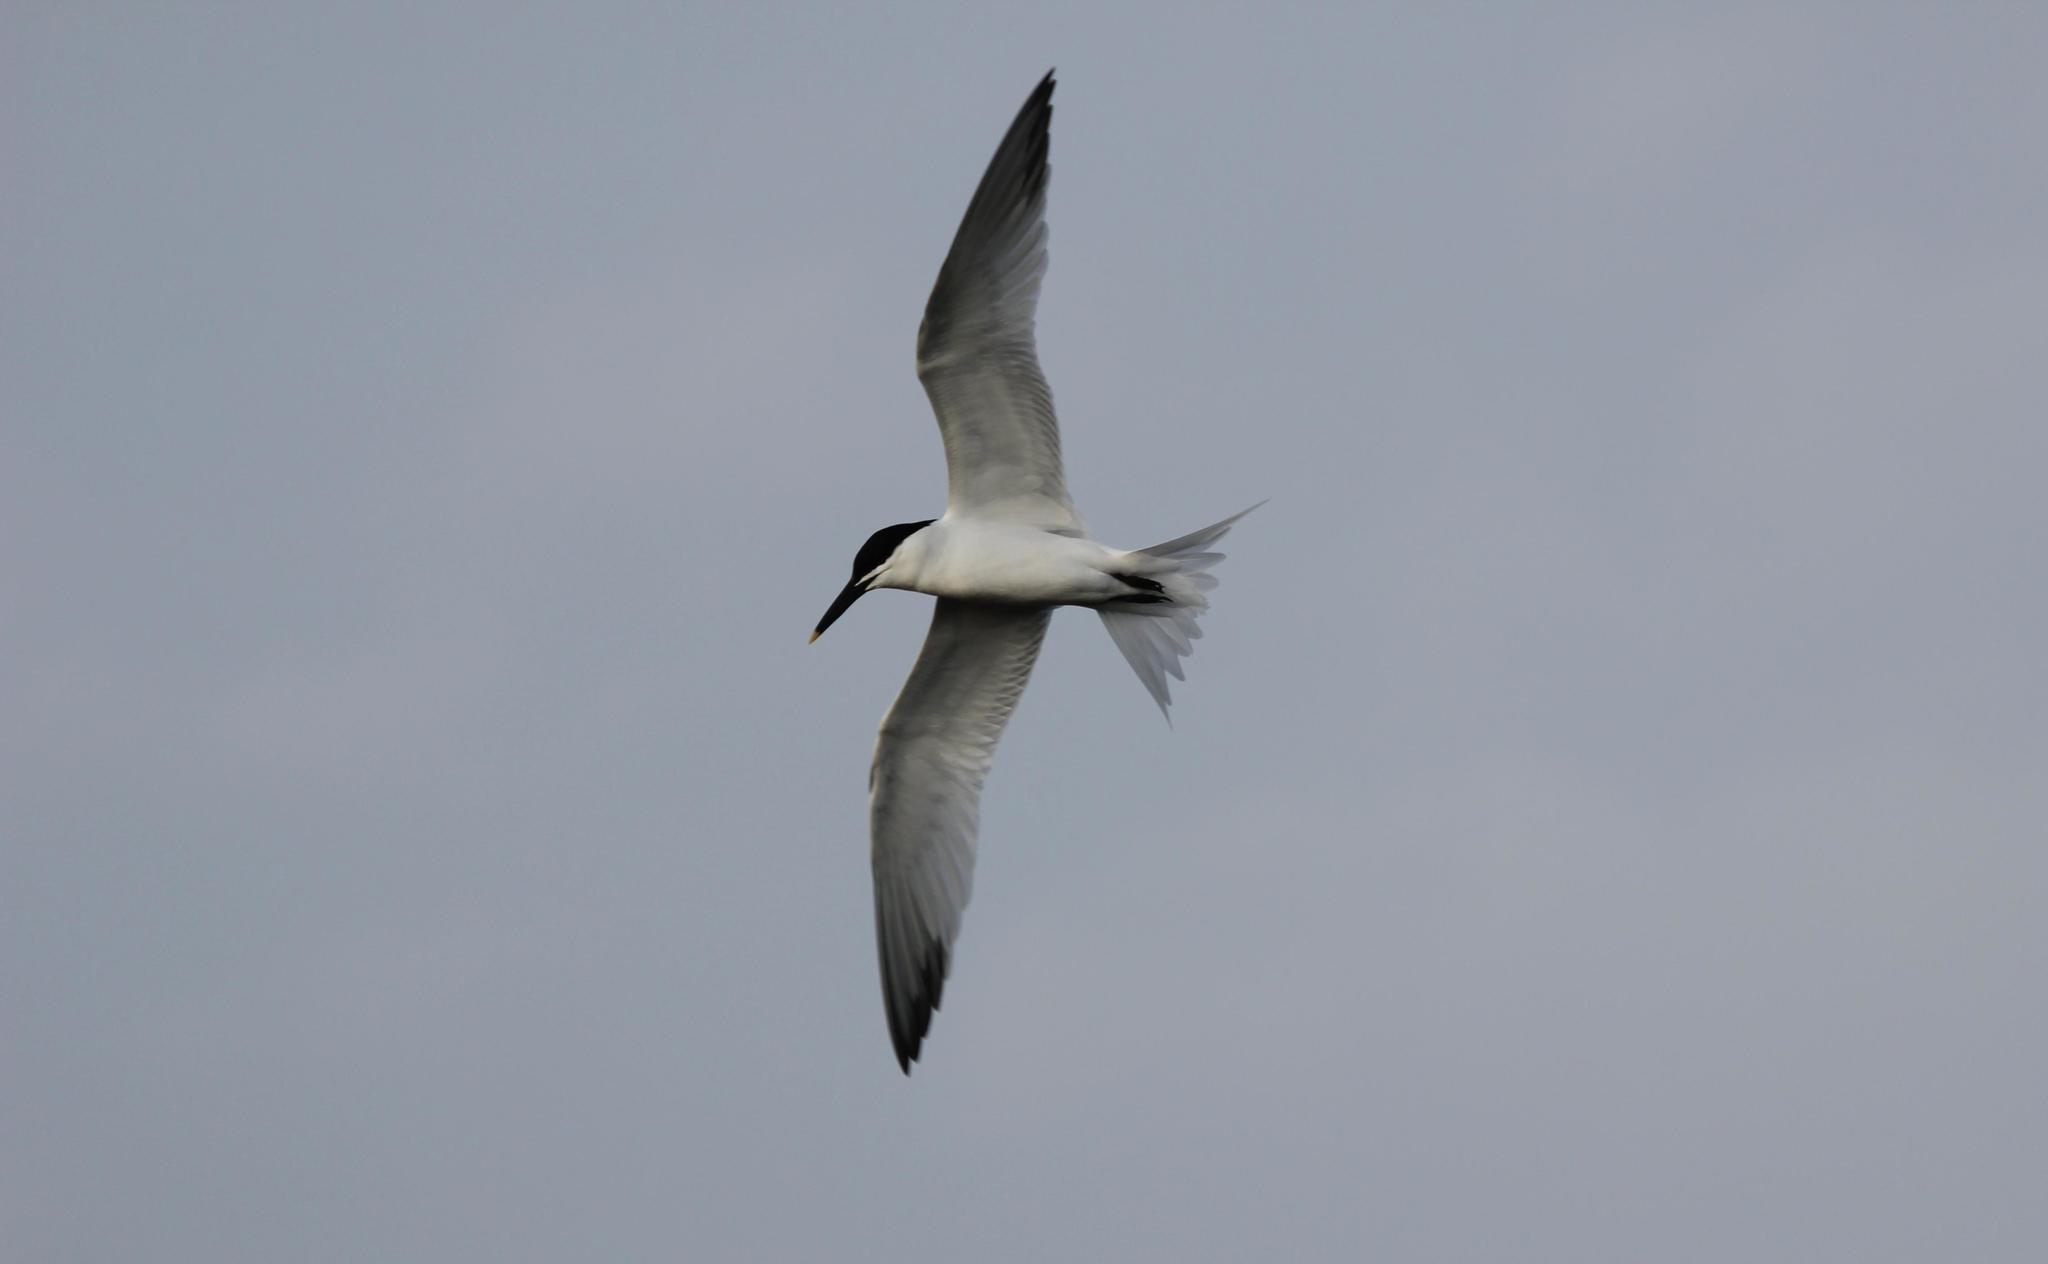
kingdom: Animalia
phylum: Chordata
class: Aves
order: Charadriiformes
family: Laridae
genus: Thalasseus
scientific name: Thalasseus sandvicensis
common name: Sandwich tern
